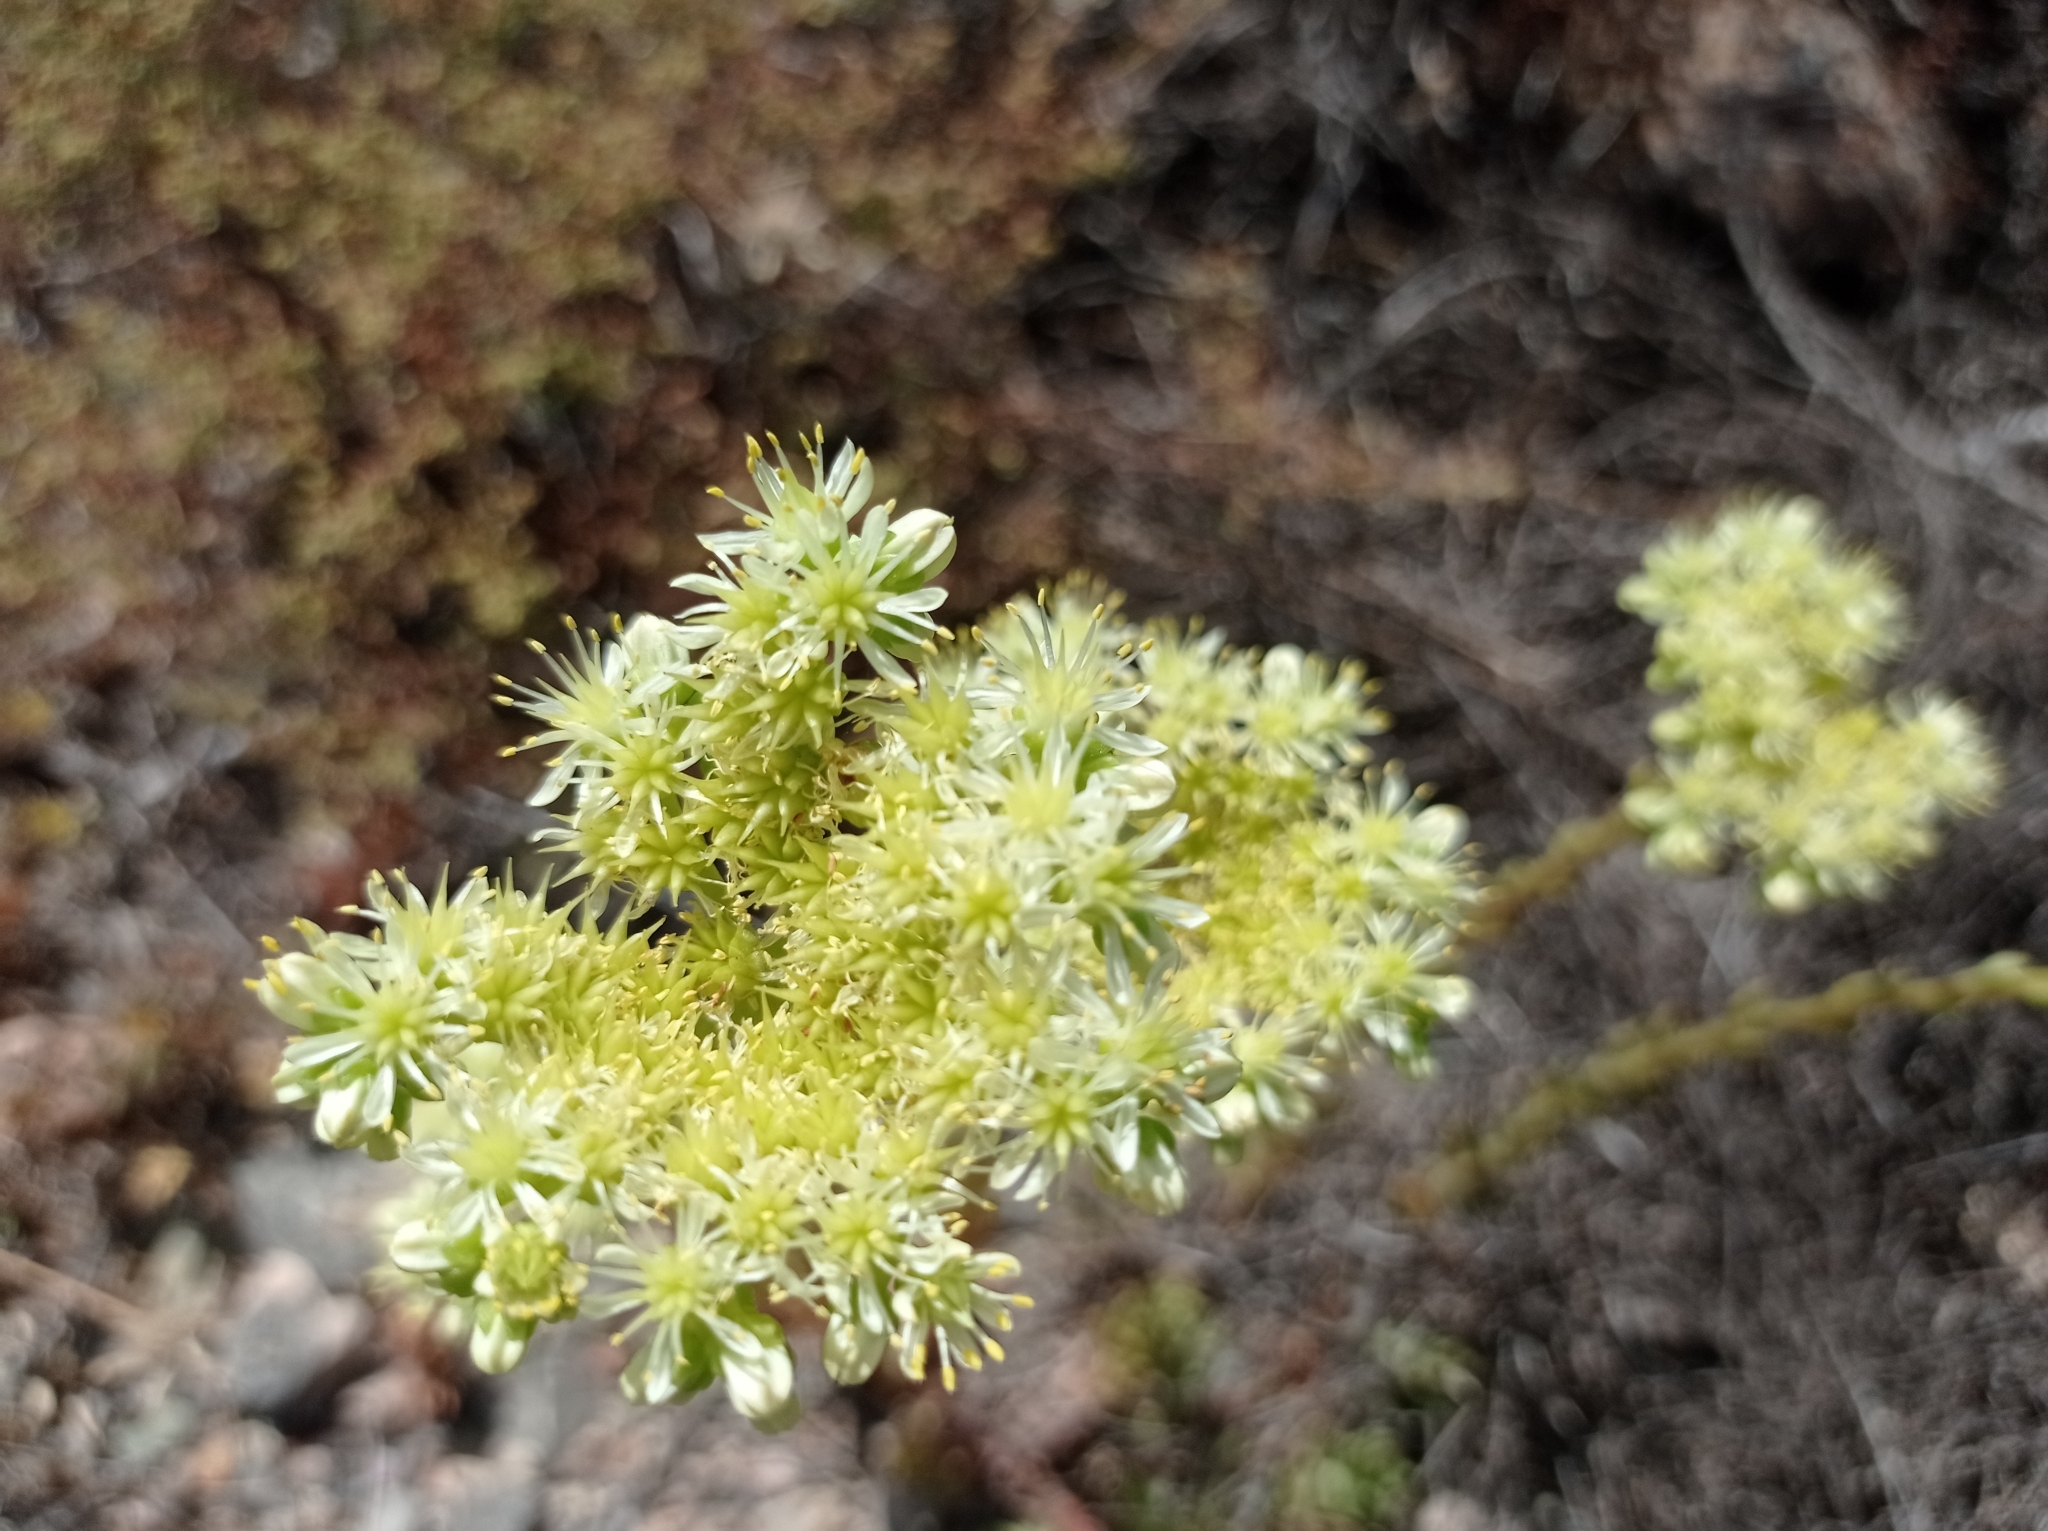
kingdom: Plantae
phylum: Tracheophyta
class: Magnoliopsida
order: Saxifragales
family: Crassulaceae
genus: Petrosedum
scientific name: Petrosedum sediforme
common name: Pale stonecrop
